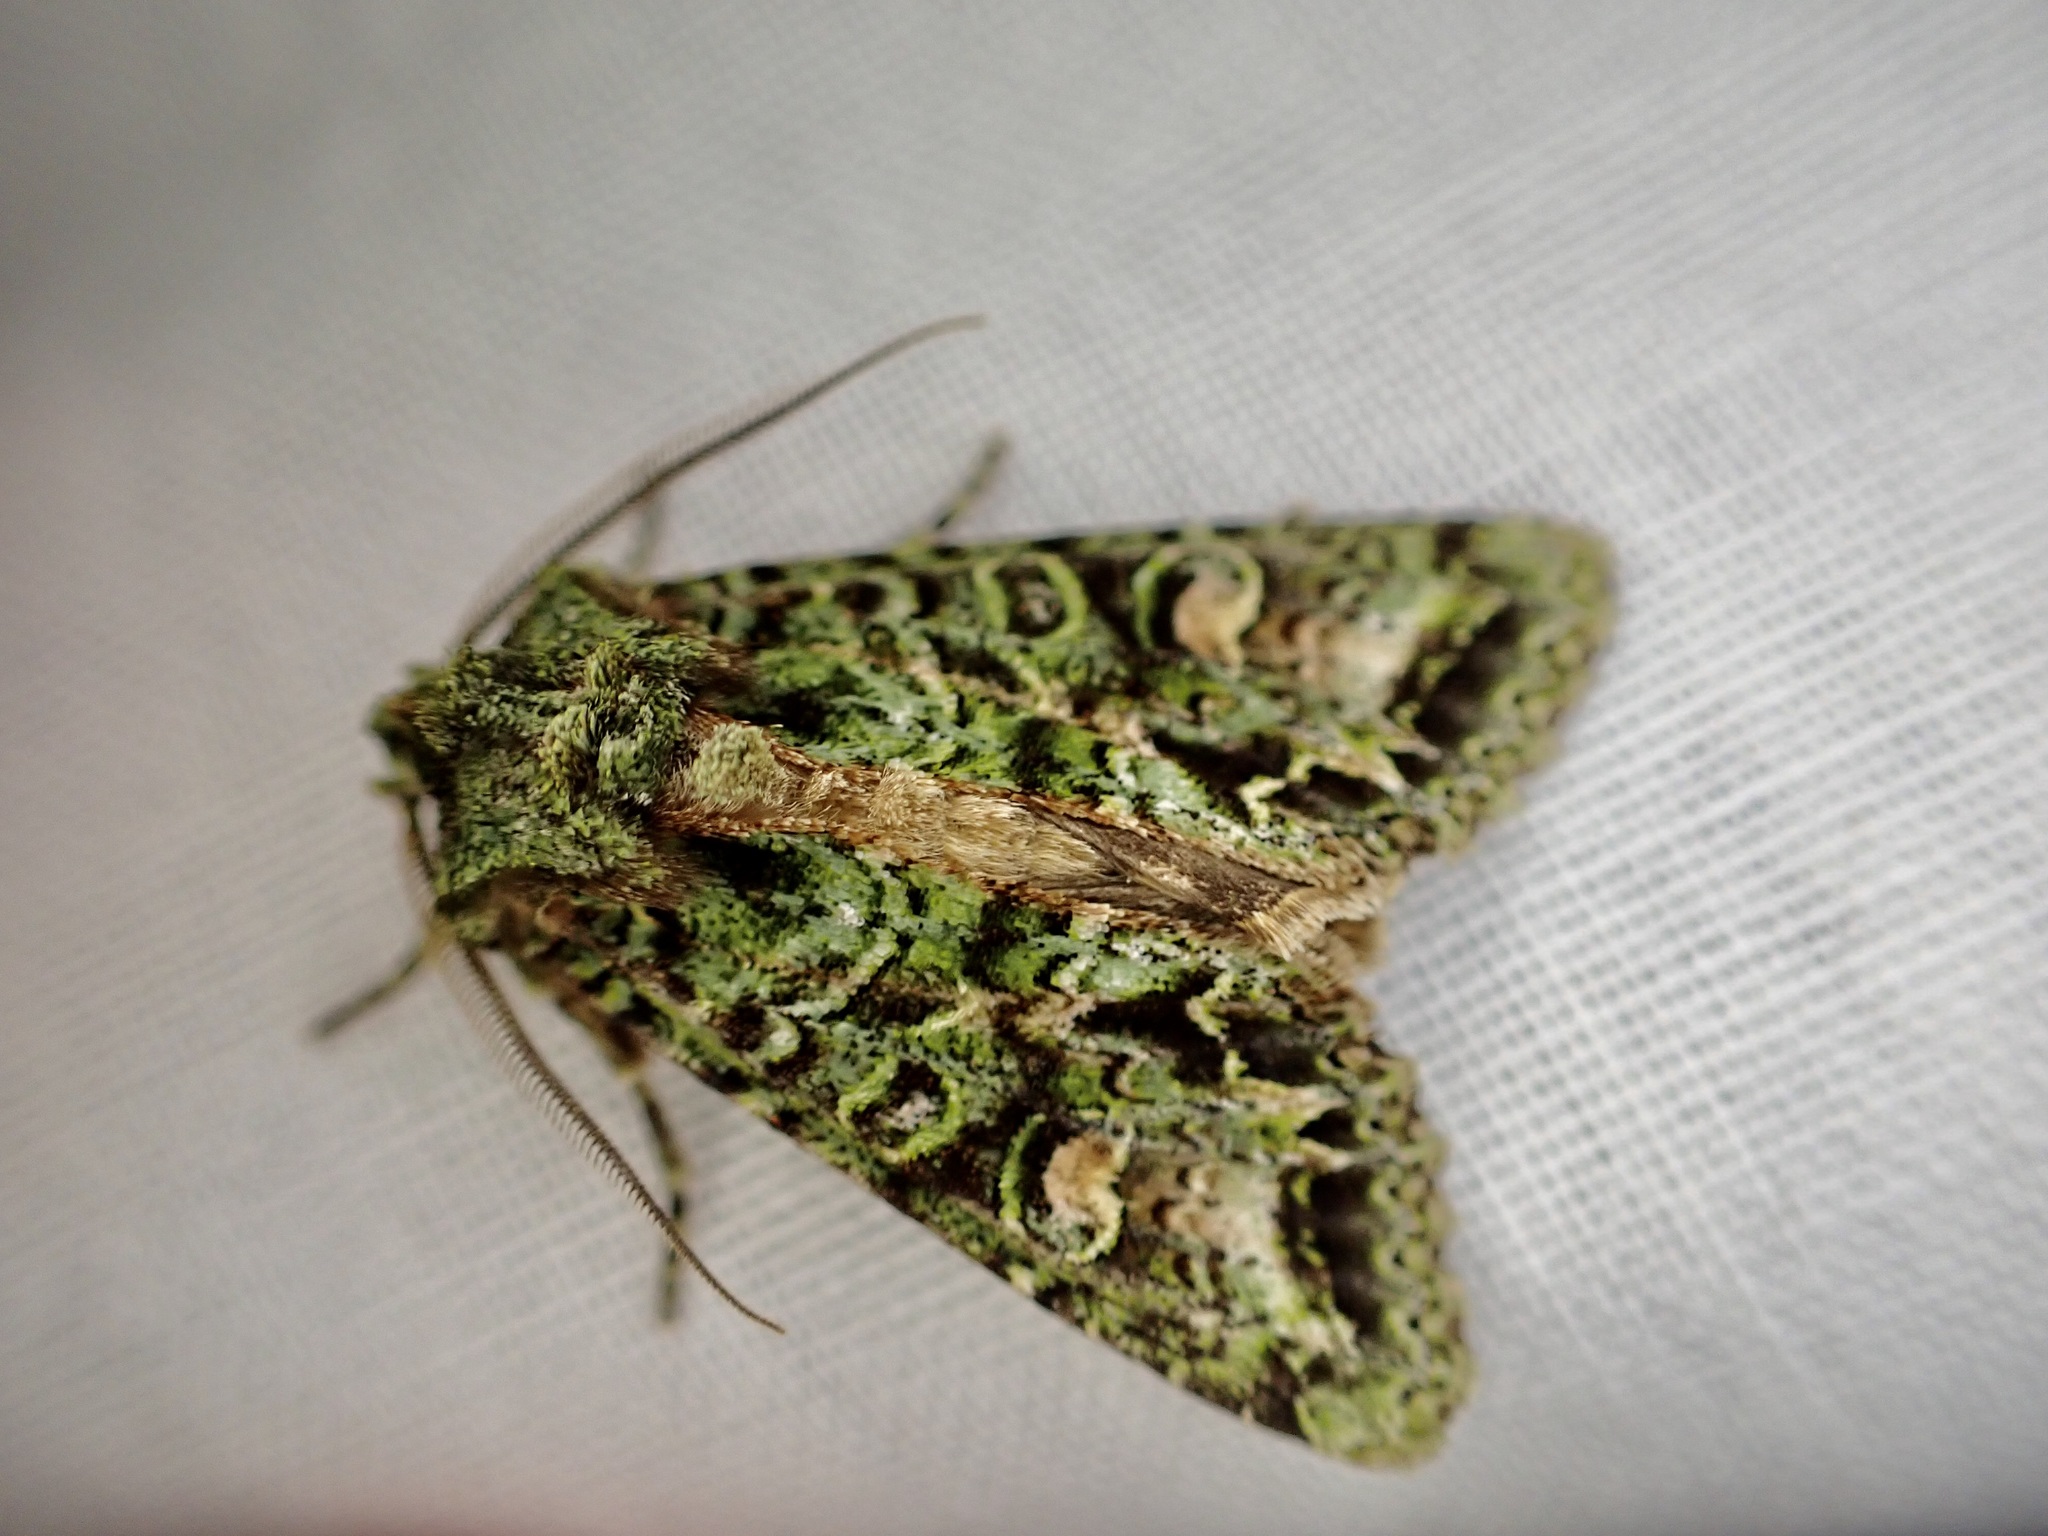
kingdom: Animalia
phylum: Arthropoda
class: Insecta
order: Lepidoptera
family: Noctuidae
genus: Ichneutica
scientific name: Ichneutica
